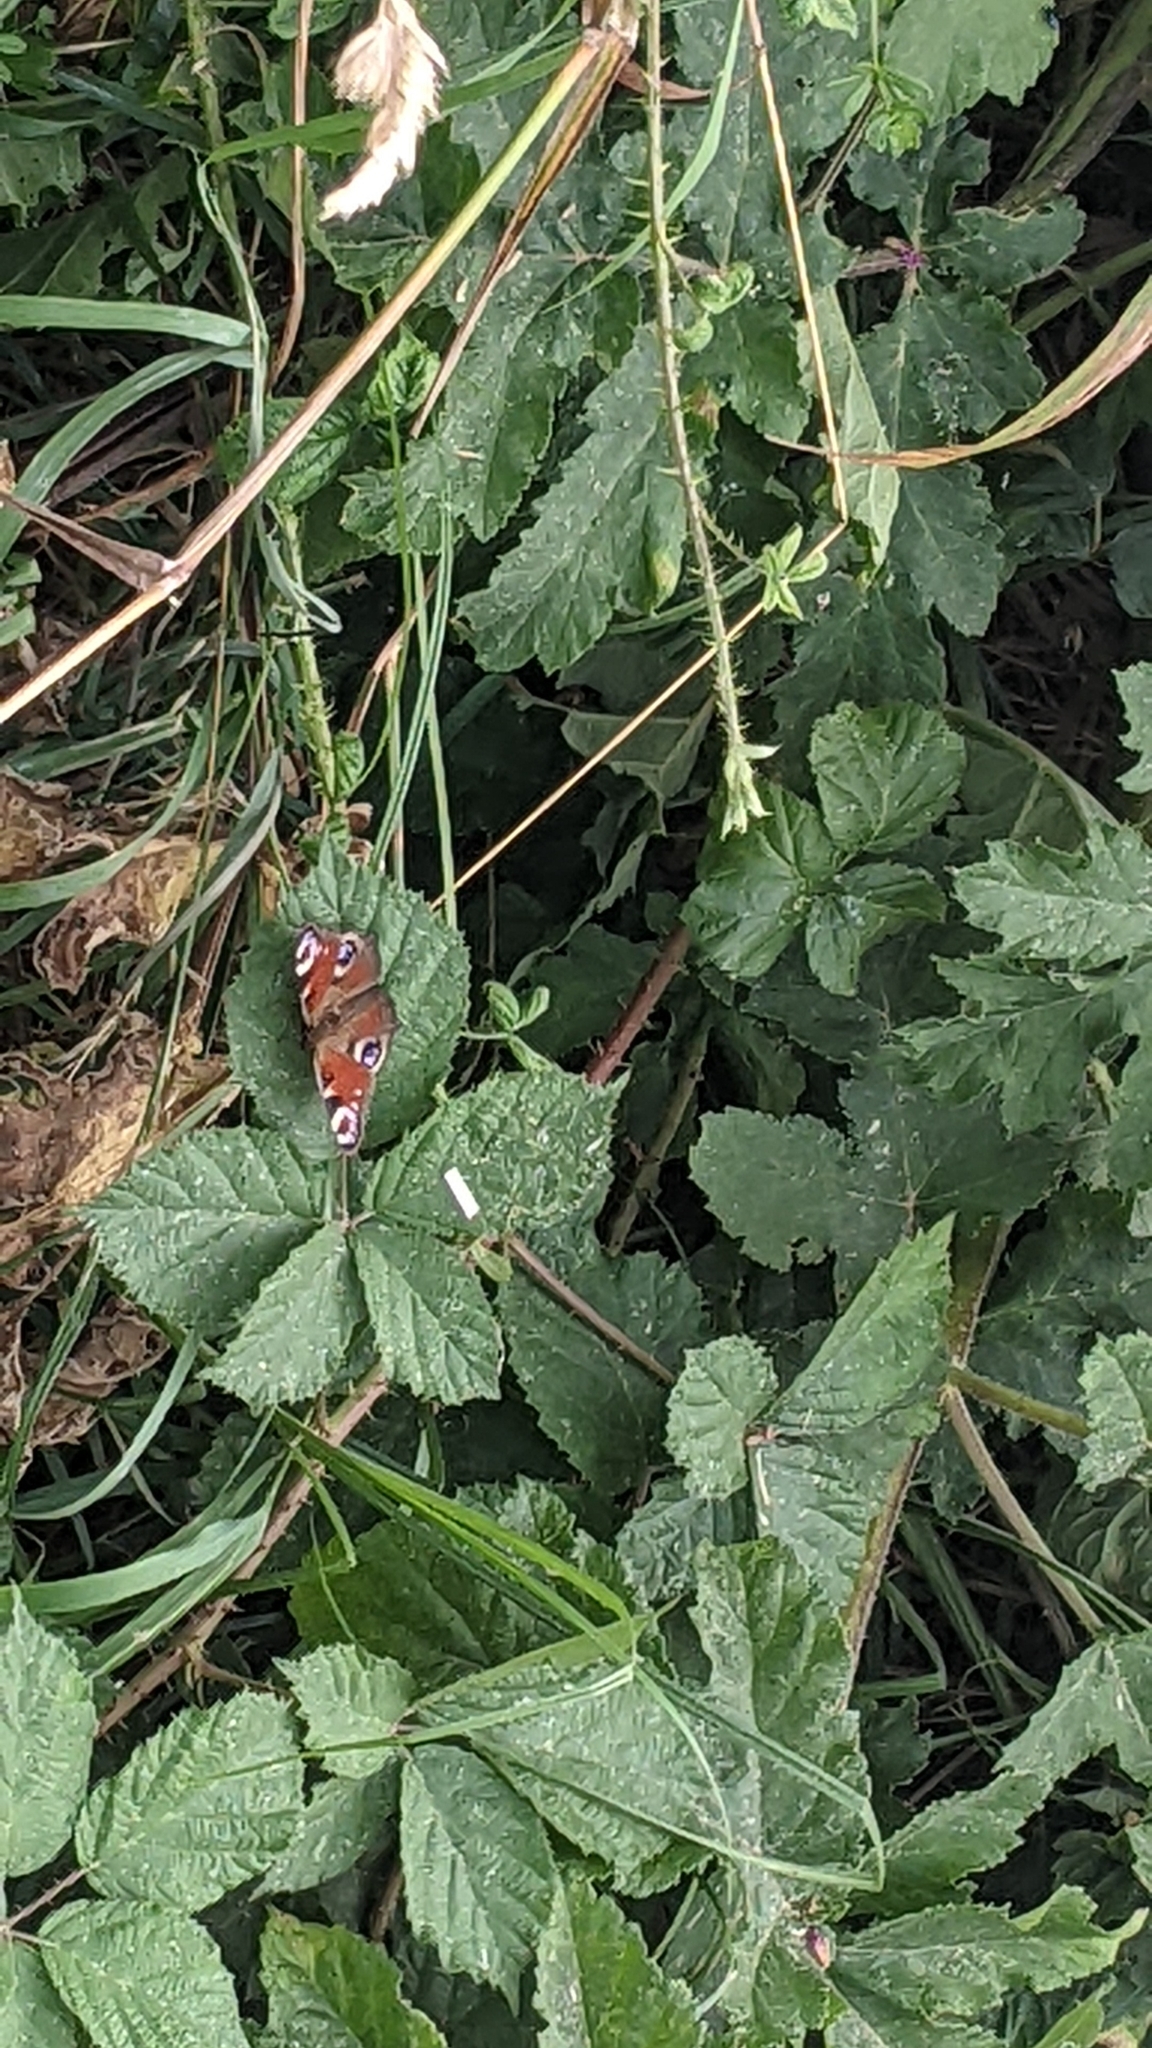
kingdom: Animalia
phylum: Arthropoda
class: Insecta
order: Lepidoptera
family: Nymphalidae
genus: Aglais
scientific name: Aglais io
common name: Peacock
